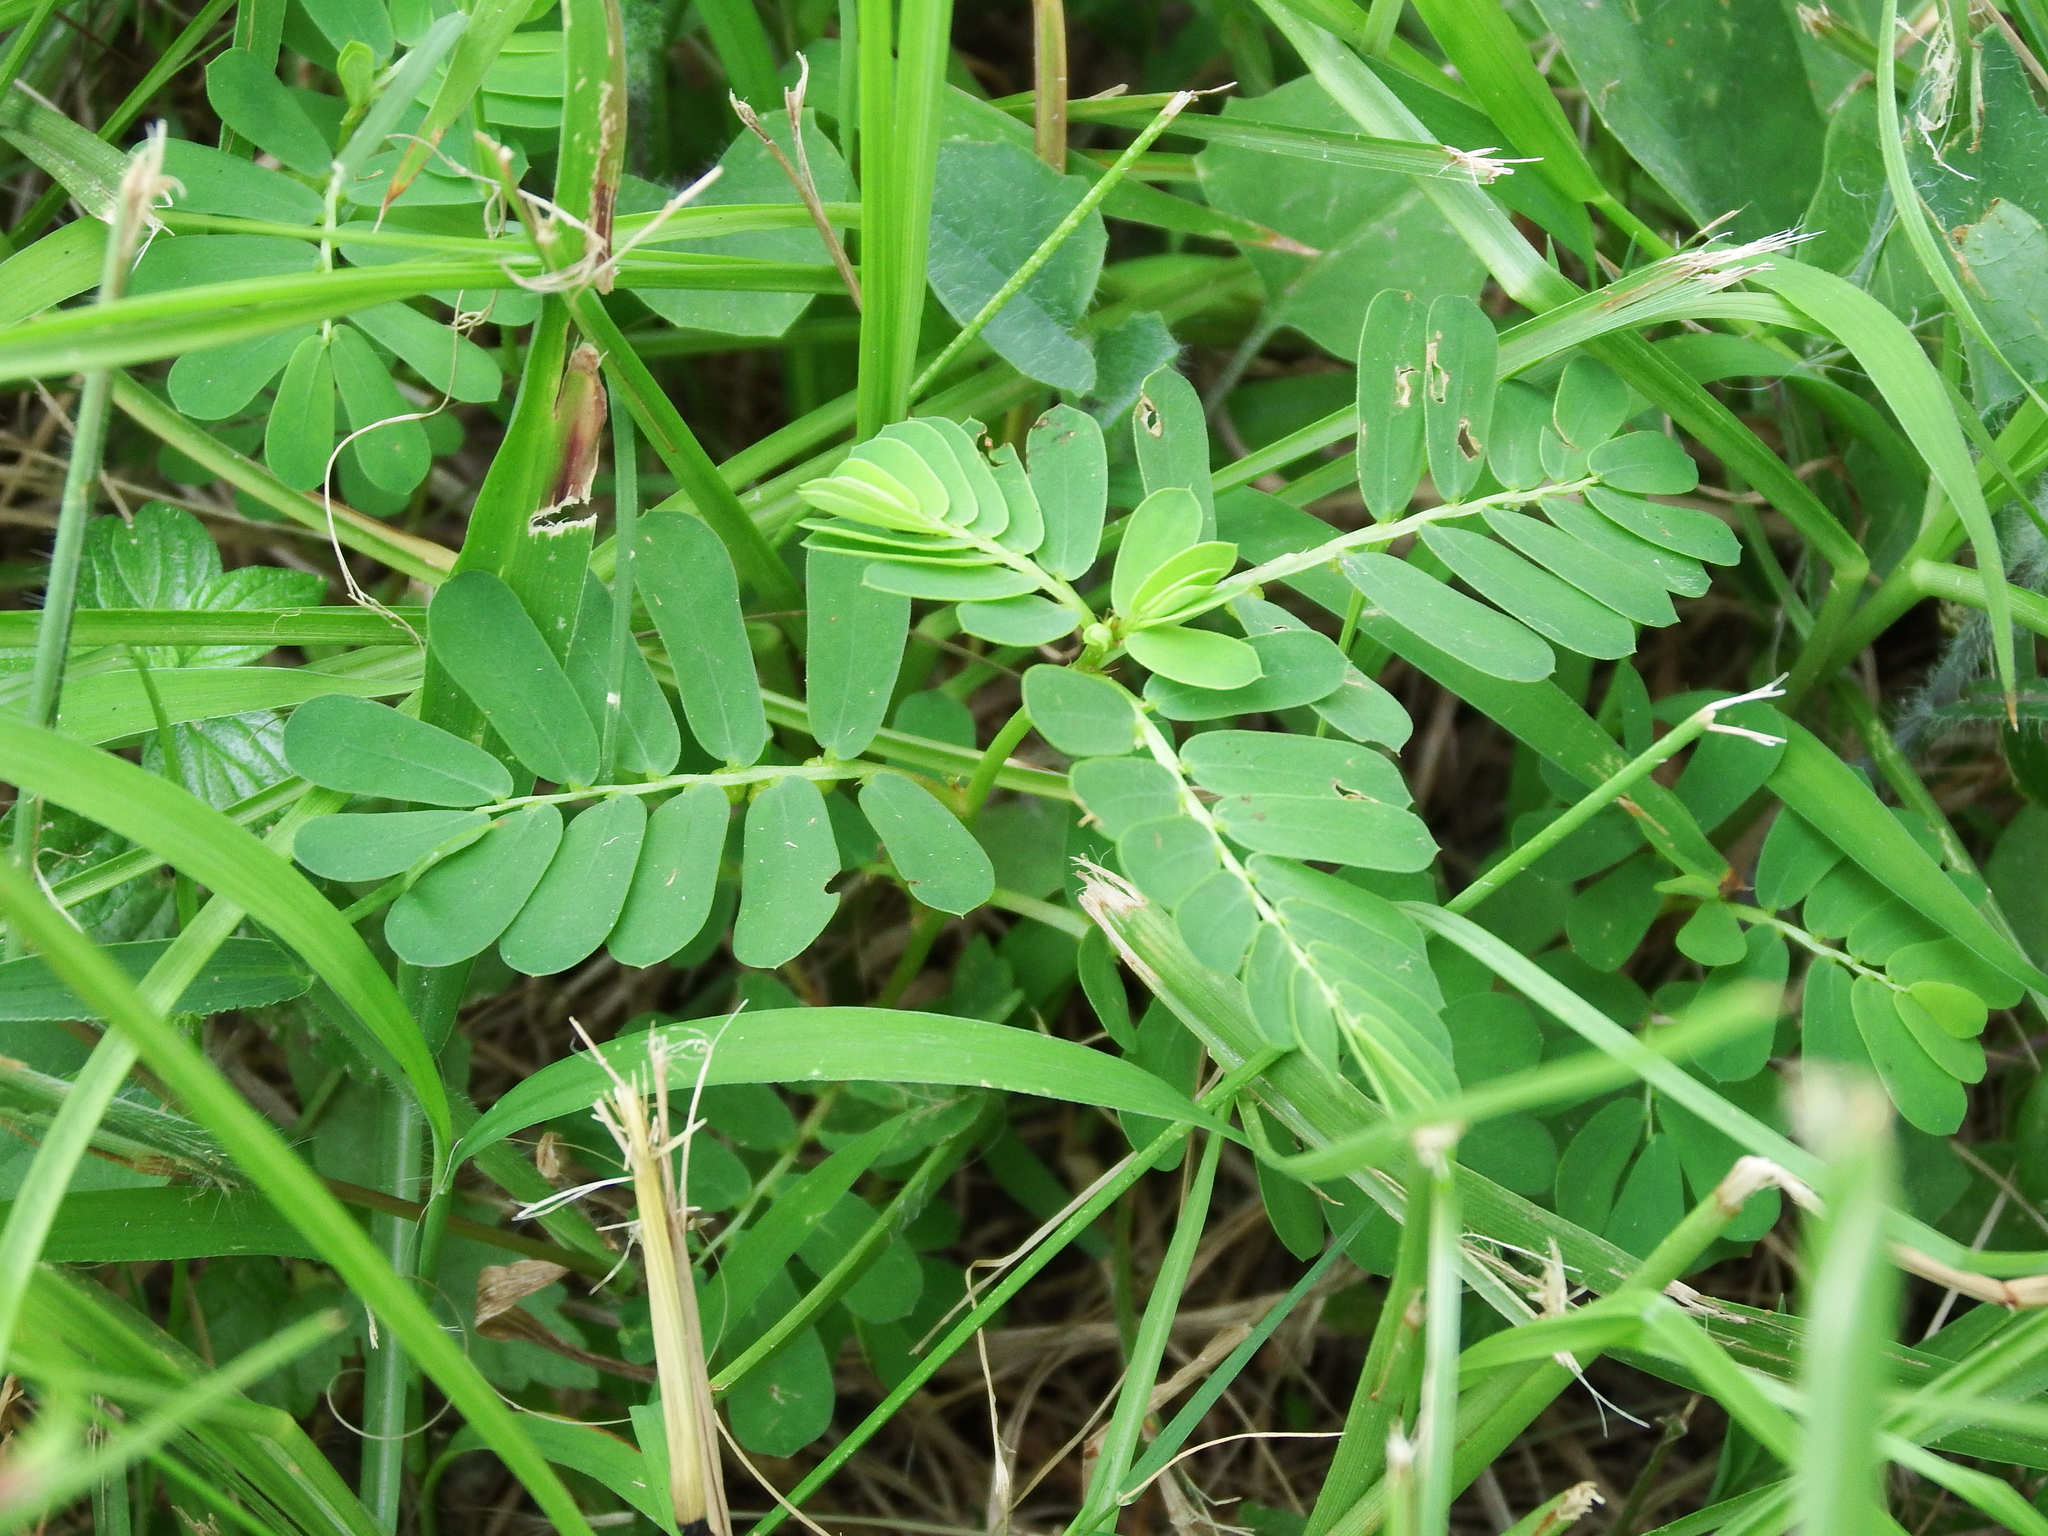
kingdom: Plantae
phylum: Tracheophyta
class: Magnoliopsida
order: Malpighiales
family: Phyllanthaceae
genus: Phyllanthus
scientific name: Phyllanthus urinaria
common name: Chamber bitter
